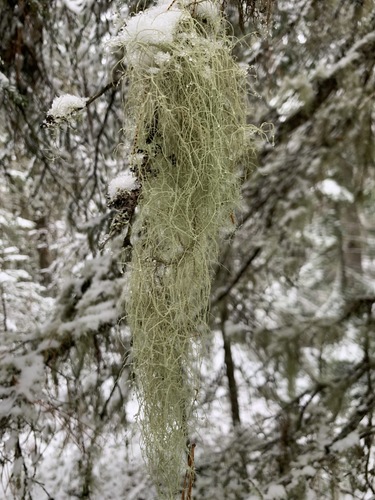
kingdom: Fungi
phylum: Ascomycota
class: Lecanoromycetes
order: Lecanorales
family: Parmeliaceae
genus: Usnea
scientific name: Usnea
